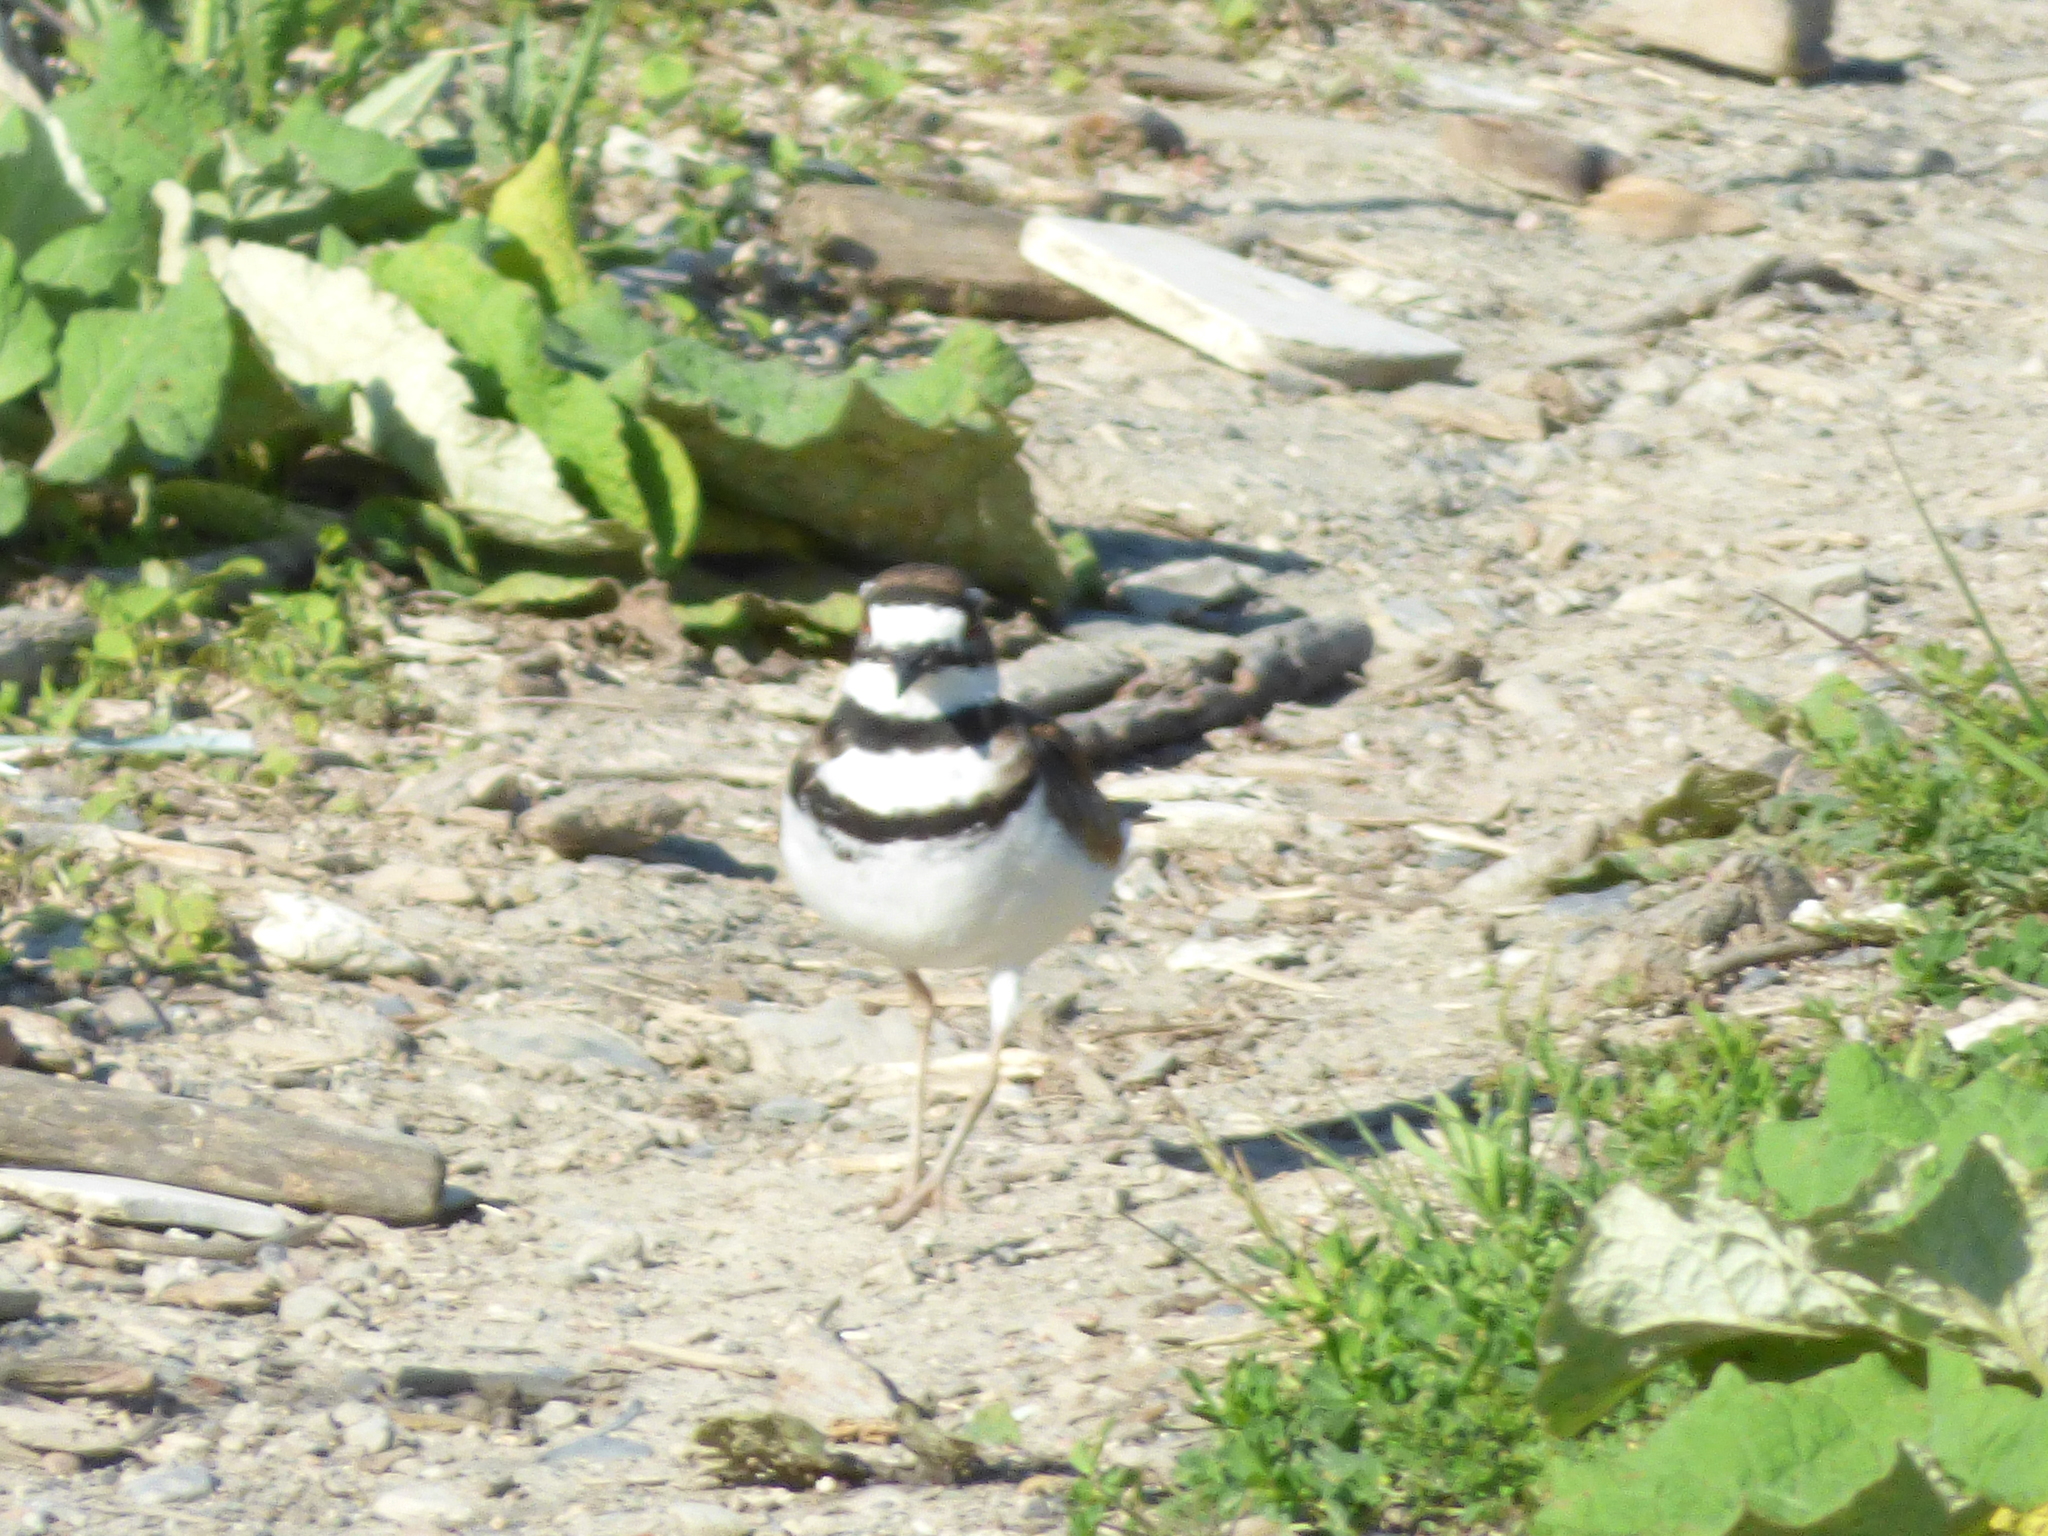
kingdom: Animalia
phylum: Chordata
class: Aves
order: Charadriiformes
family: Charadriidae
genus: Charadrius
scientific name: Charadrius vociferus
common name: Killdeer
